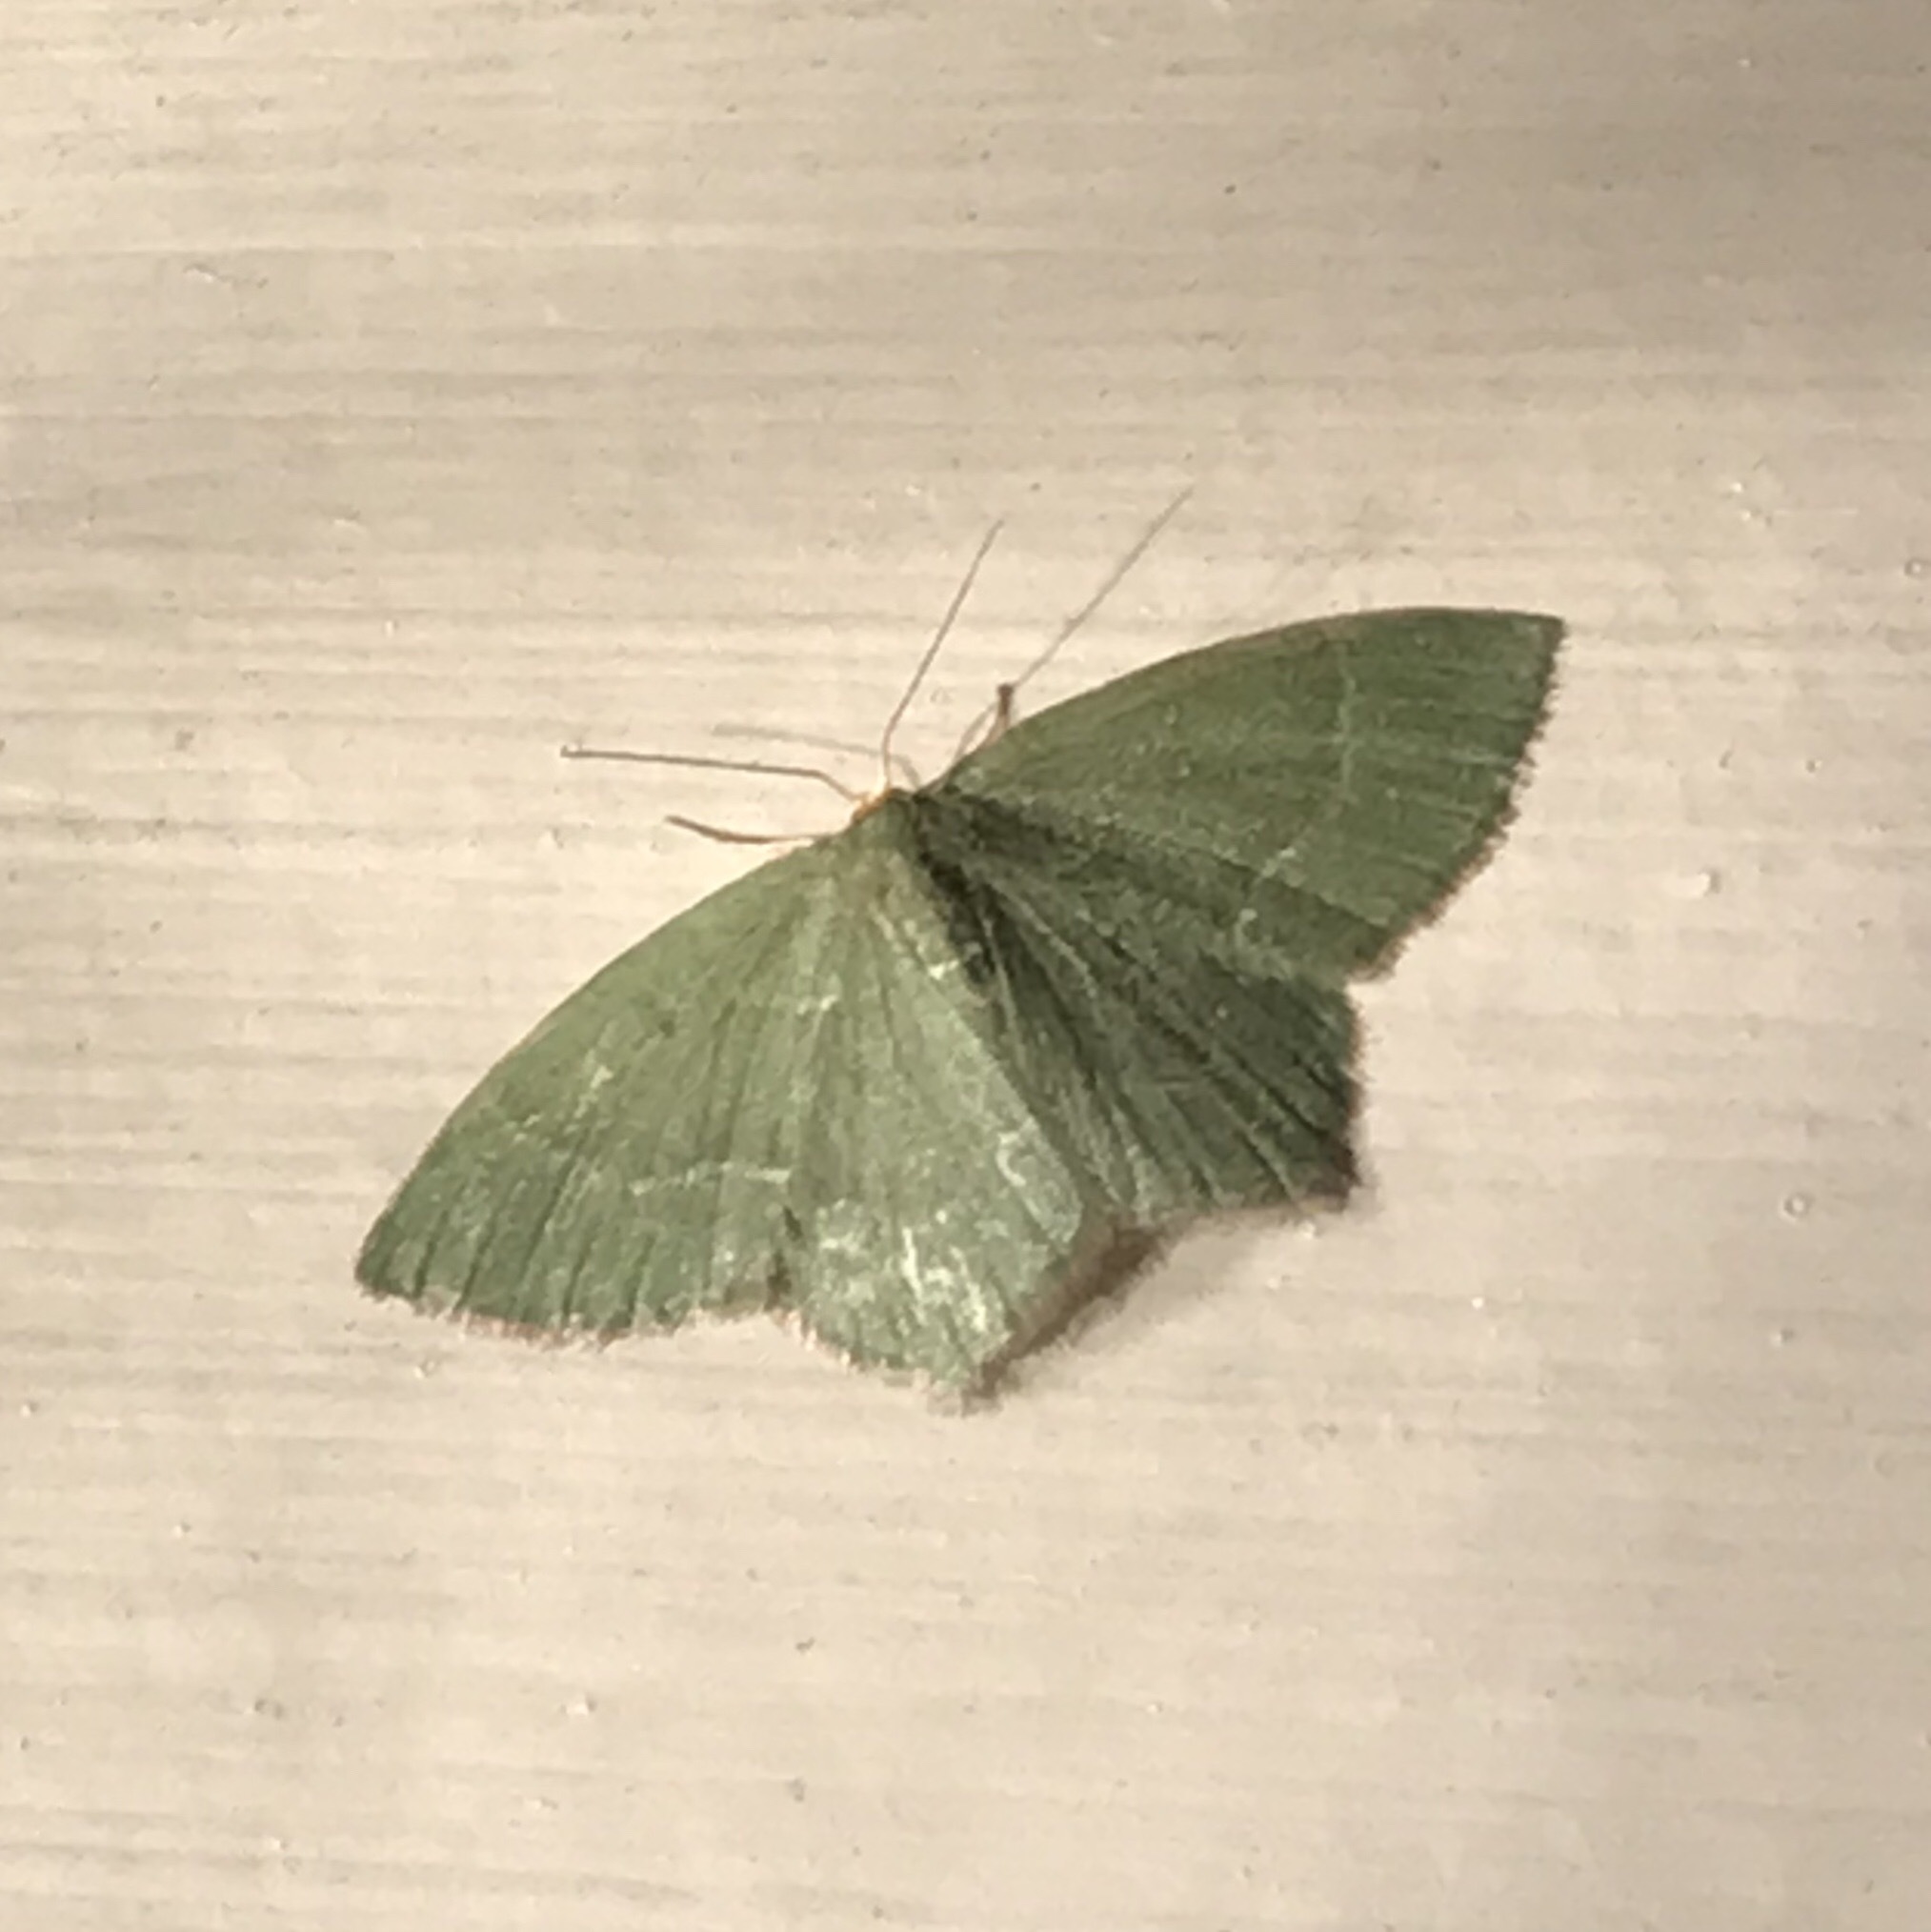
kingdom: Animalia
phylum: Arthropoda
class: Insecta
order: Lepidoptera
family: Geometridae
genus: Thalera
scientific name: Thalera pistasciaria
